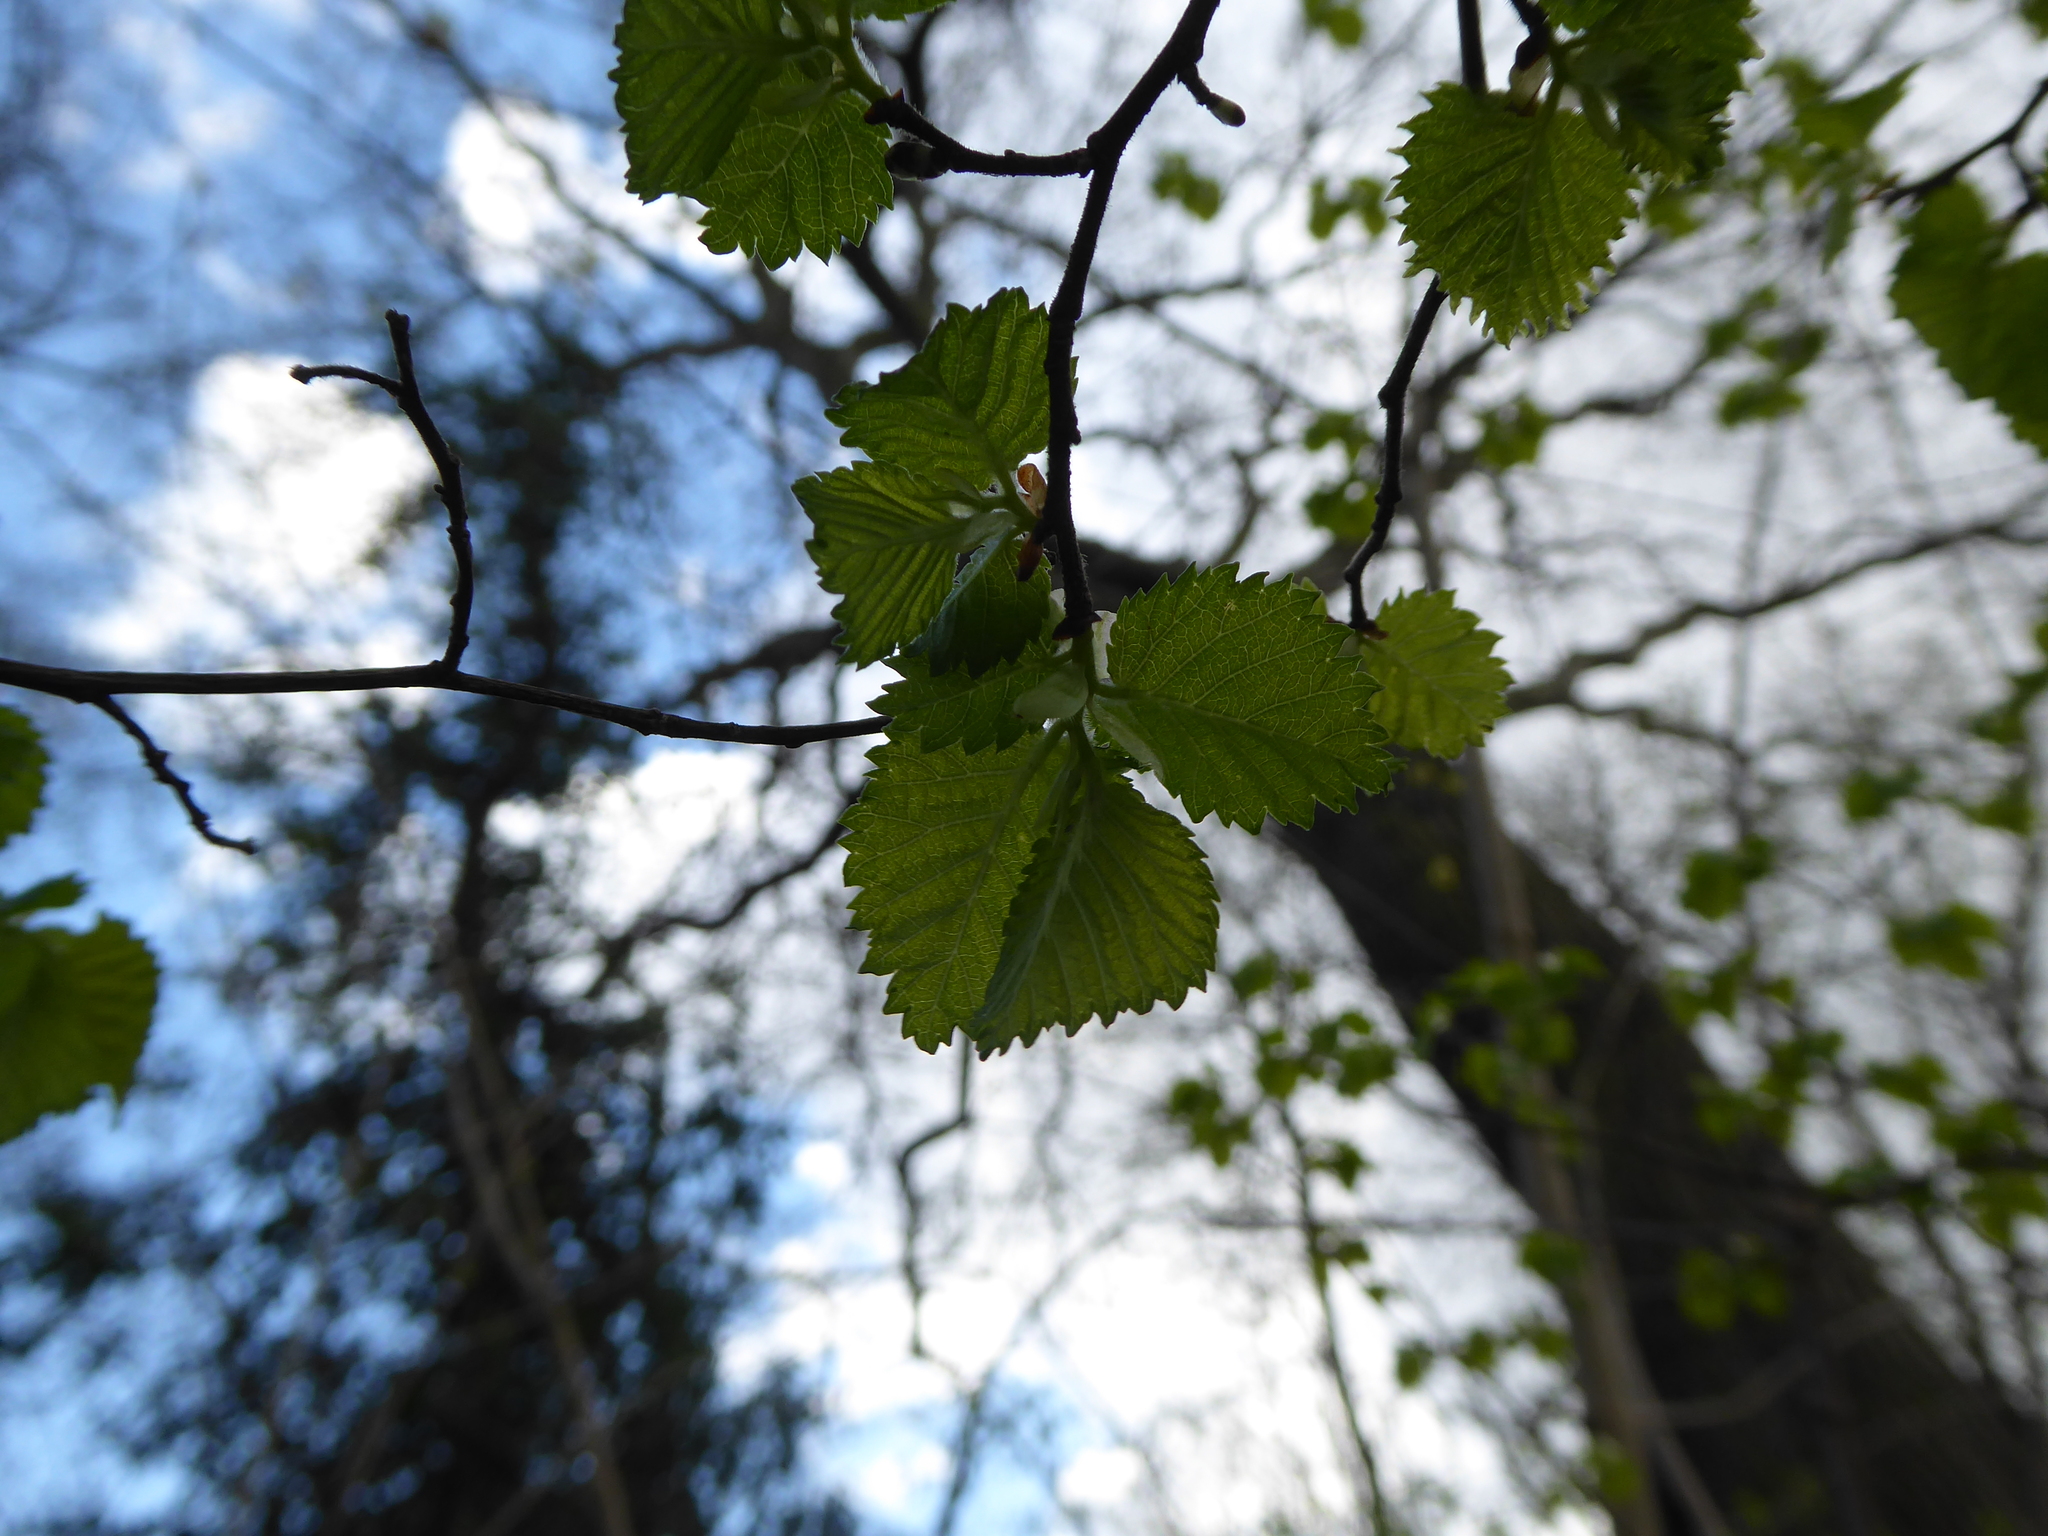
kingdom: Plantae
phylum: Tracheophyta
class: Magnoliopsida
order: Rosales
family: Ulmaceae
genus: Ulmus
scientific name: Ulmus
